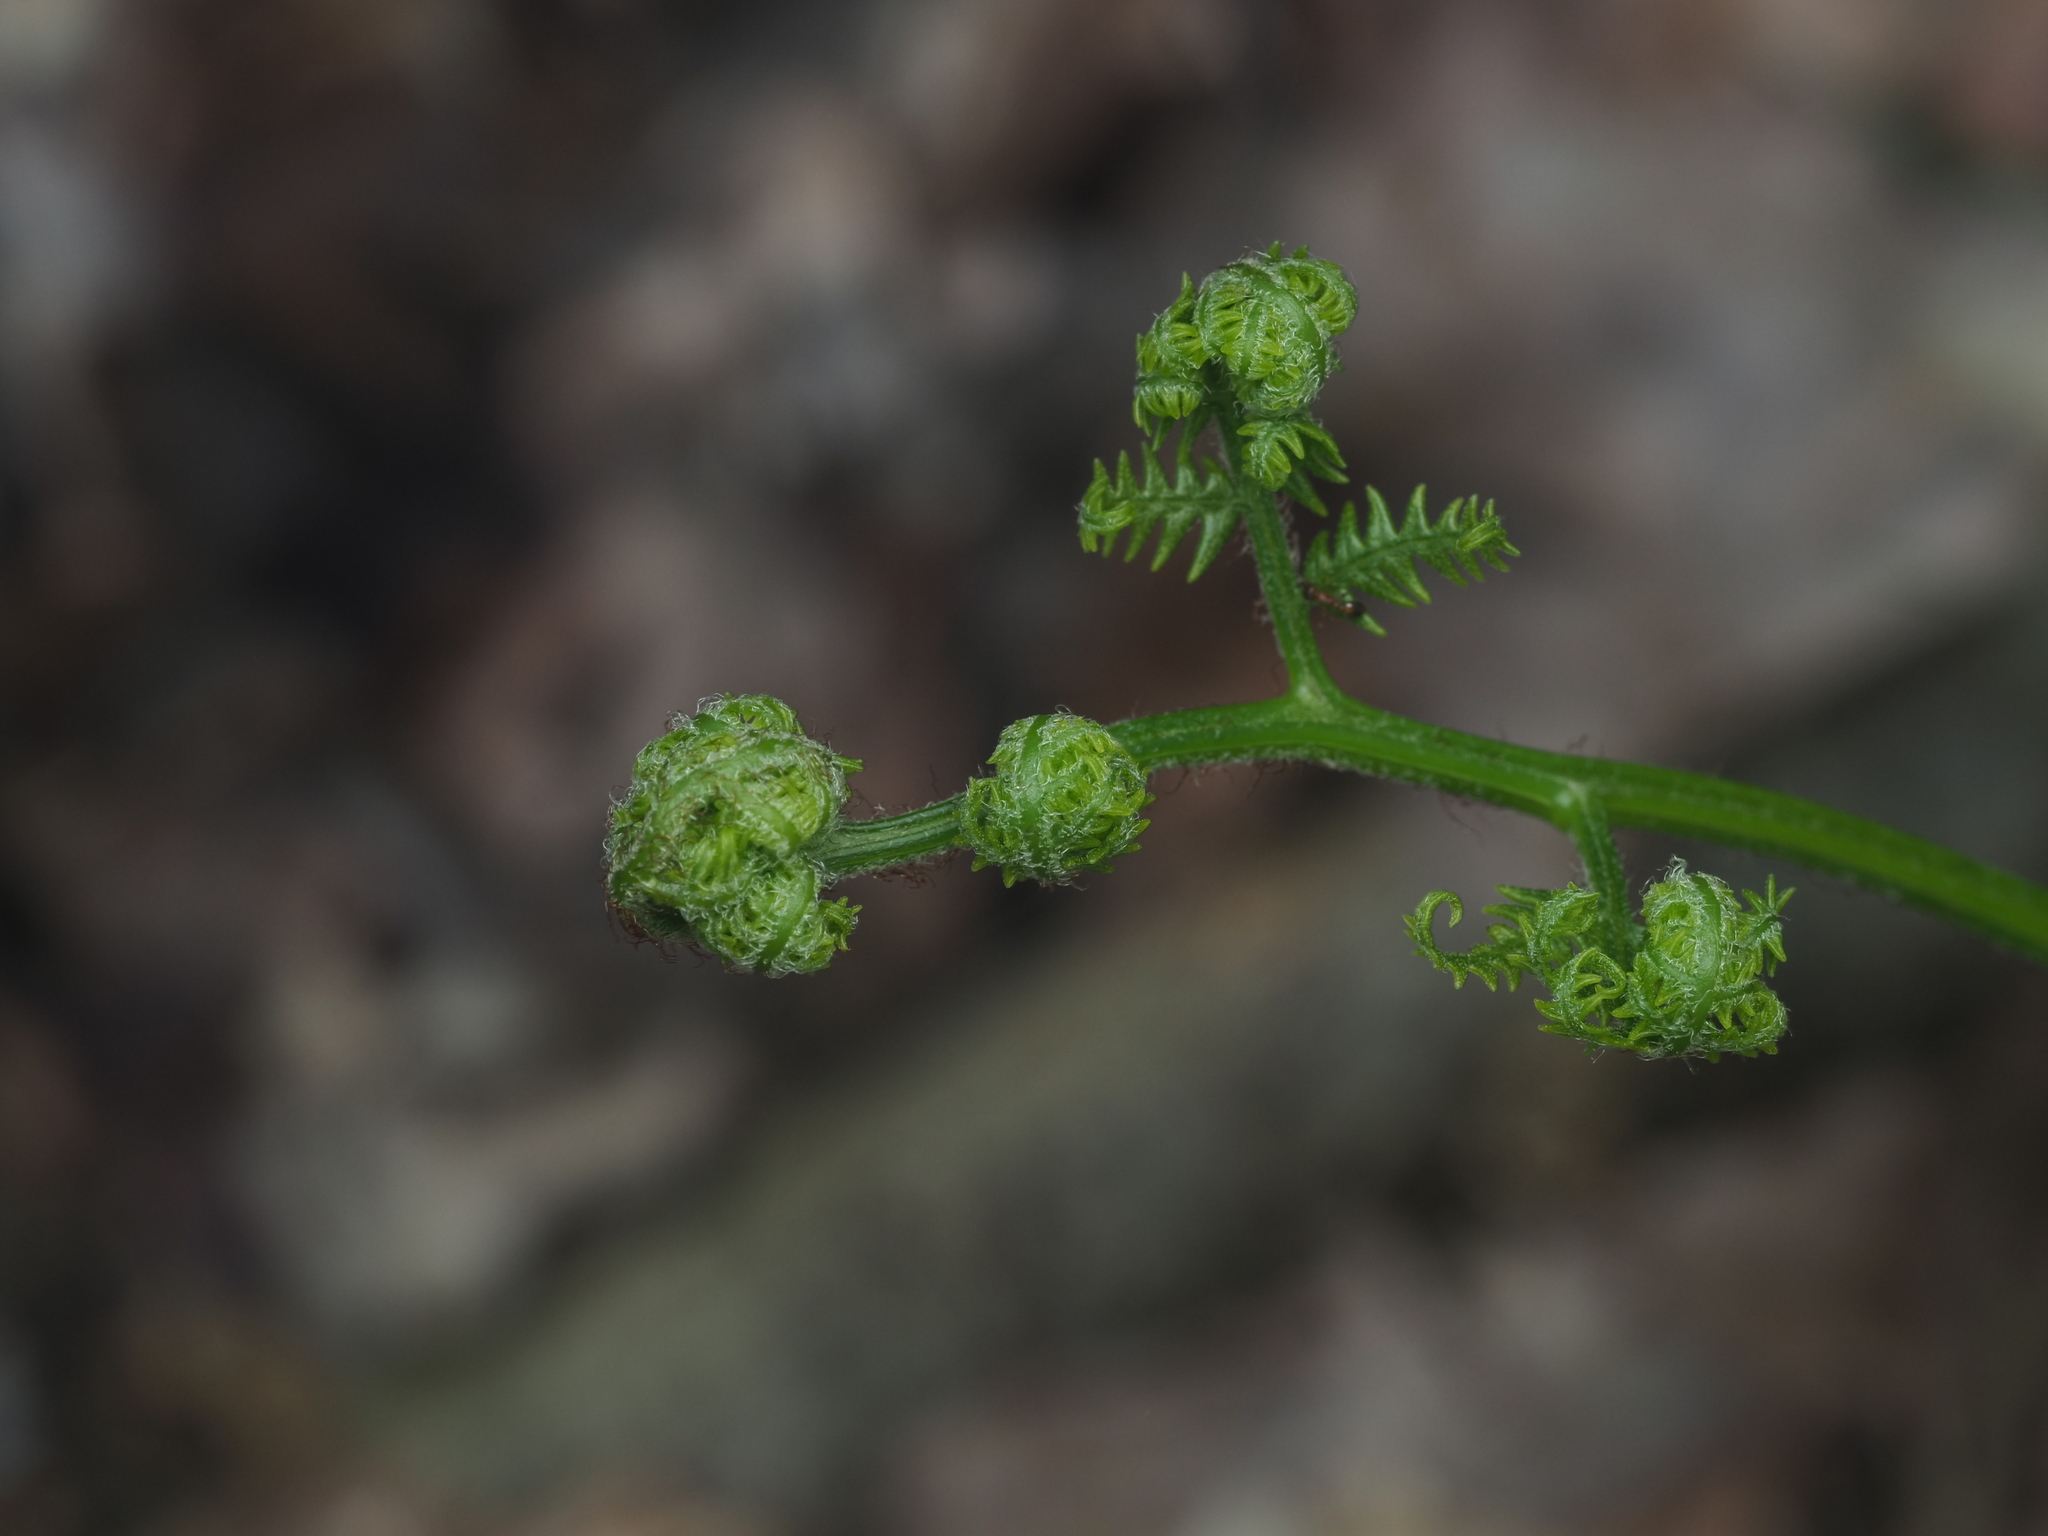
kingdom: Plantae
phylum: Tracheophyta
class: Polypodiopsida
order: Polypodiales
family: Dennstaedtiaceae
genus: Pteridium
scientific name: Pteridium aquilinum
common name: Bracken
